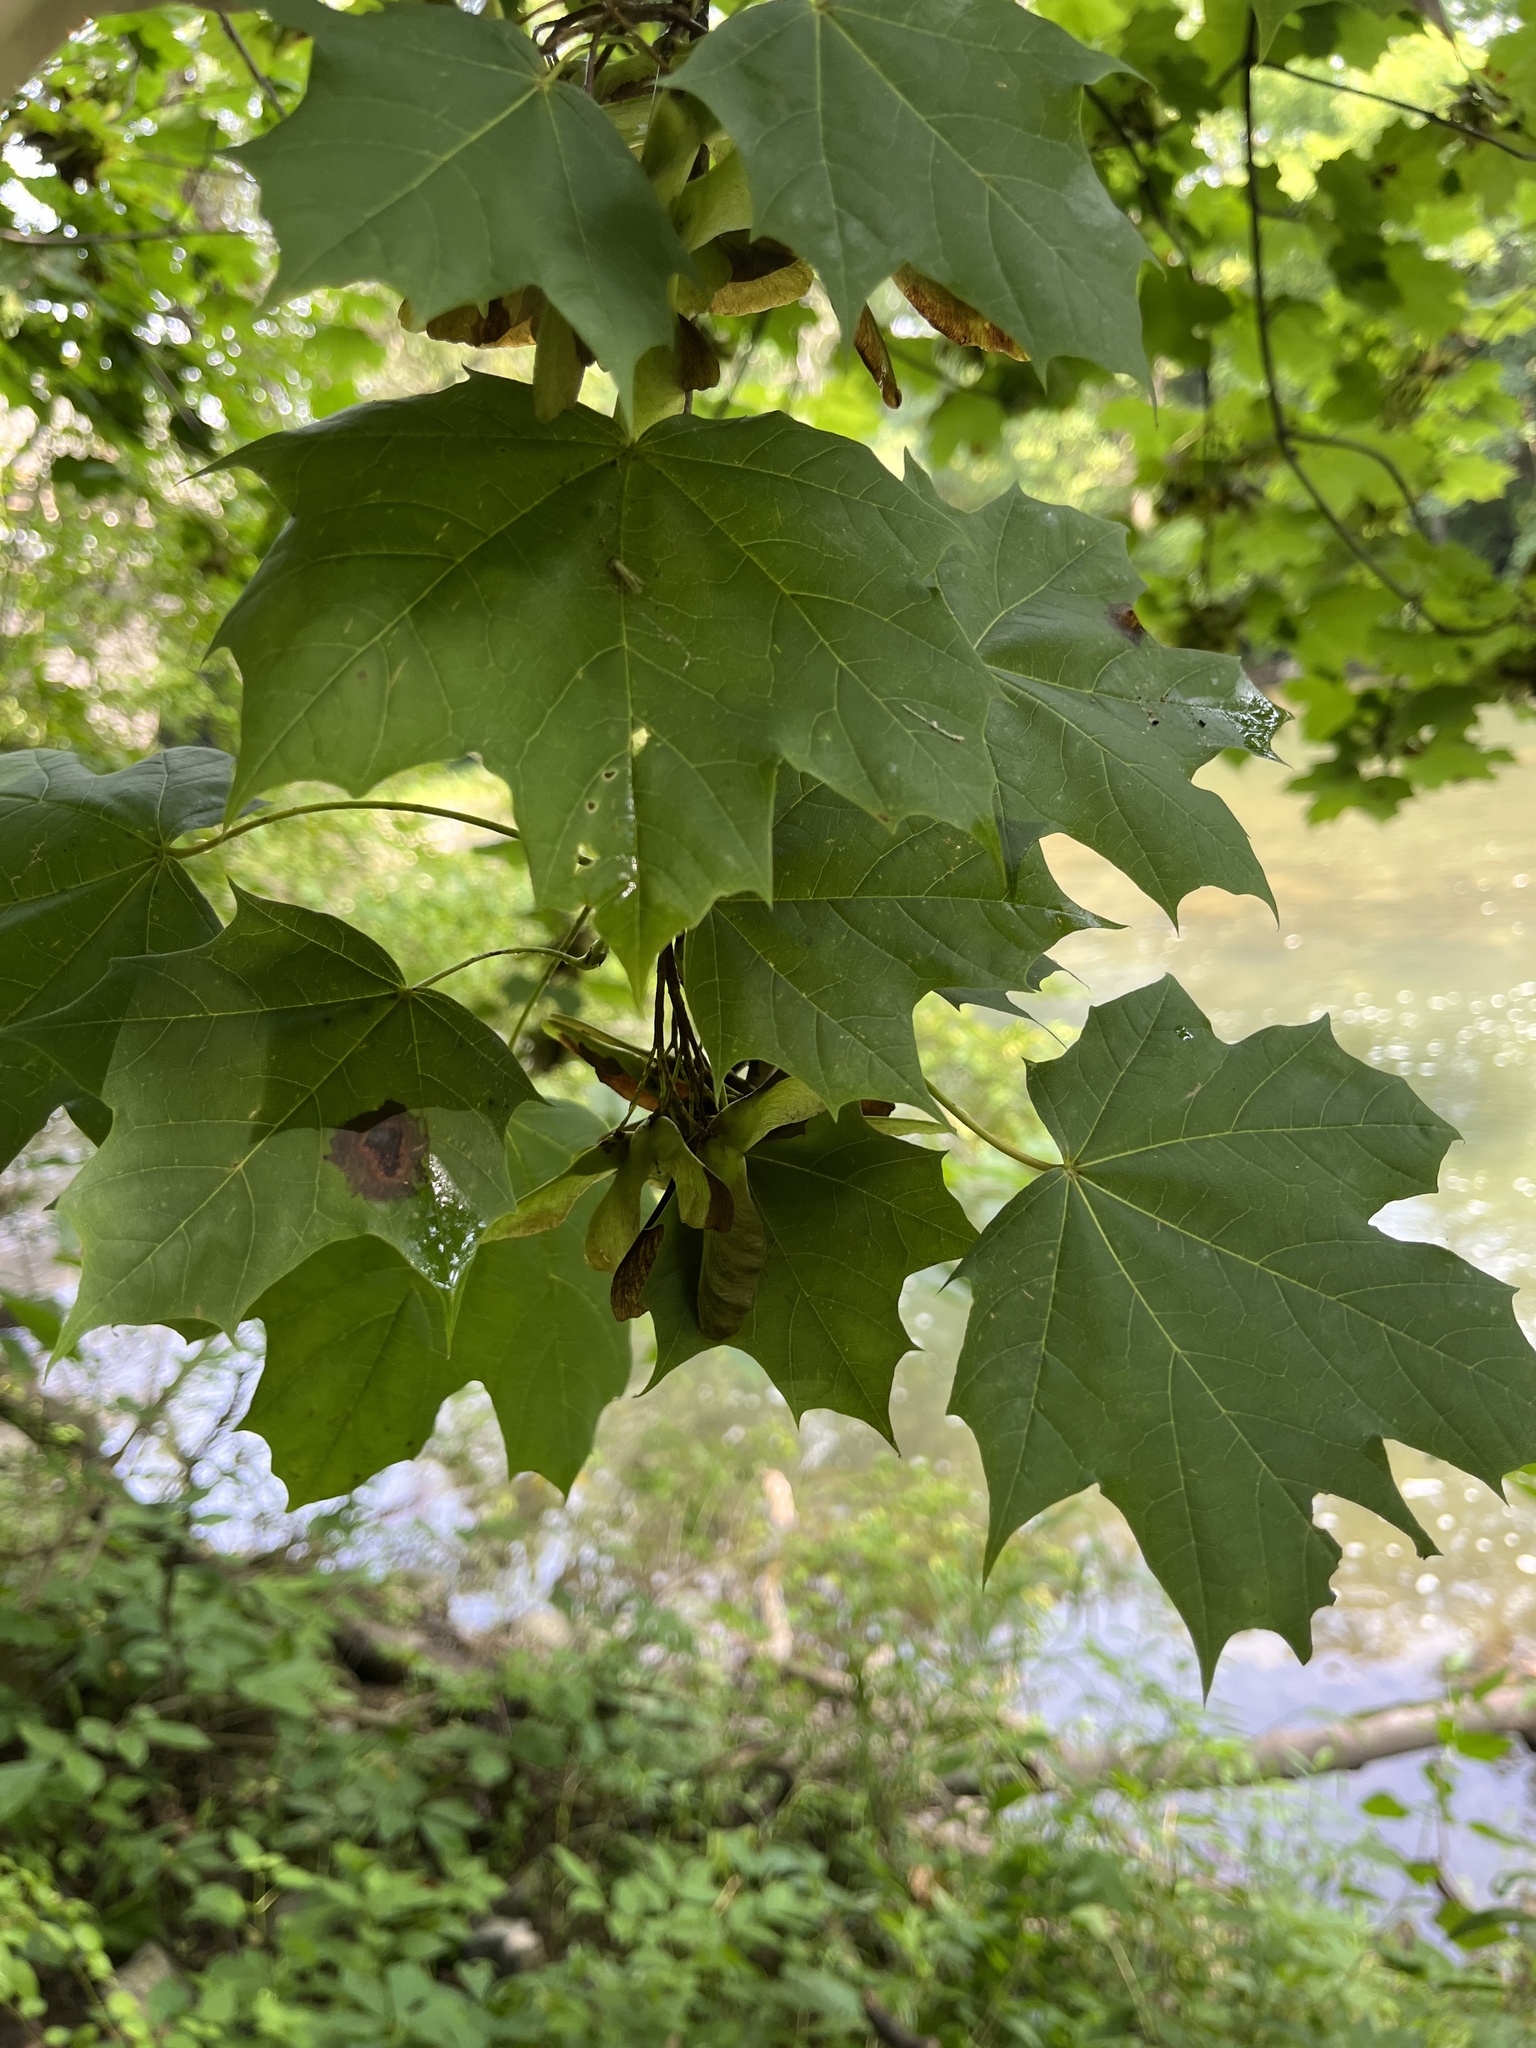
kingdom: Plantae
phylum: Tracheophyta
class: Magnoliopsida
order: Sapindales
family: Sapindaceae
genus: Acer
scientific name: Acer platanoides
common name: Norway maple
